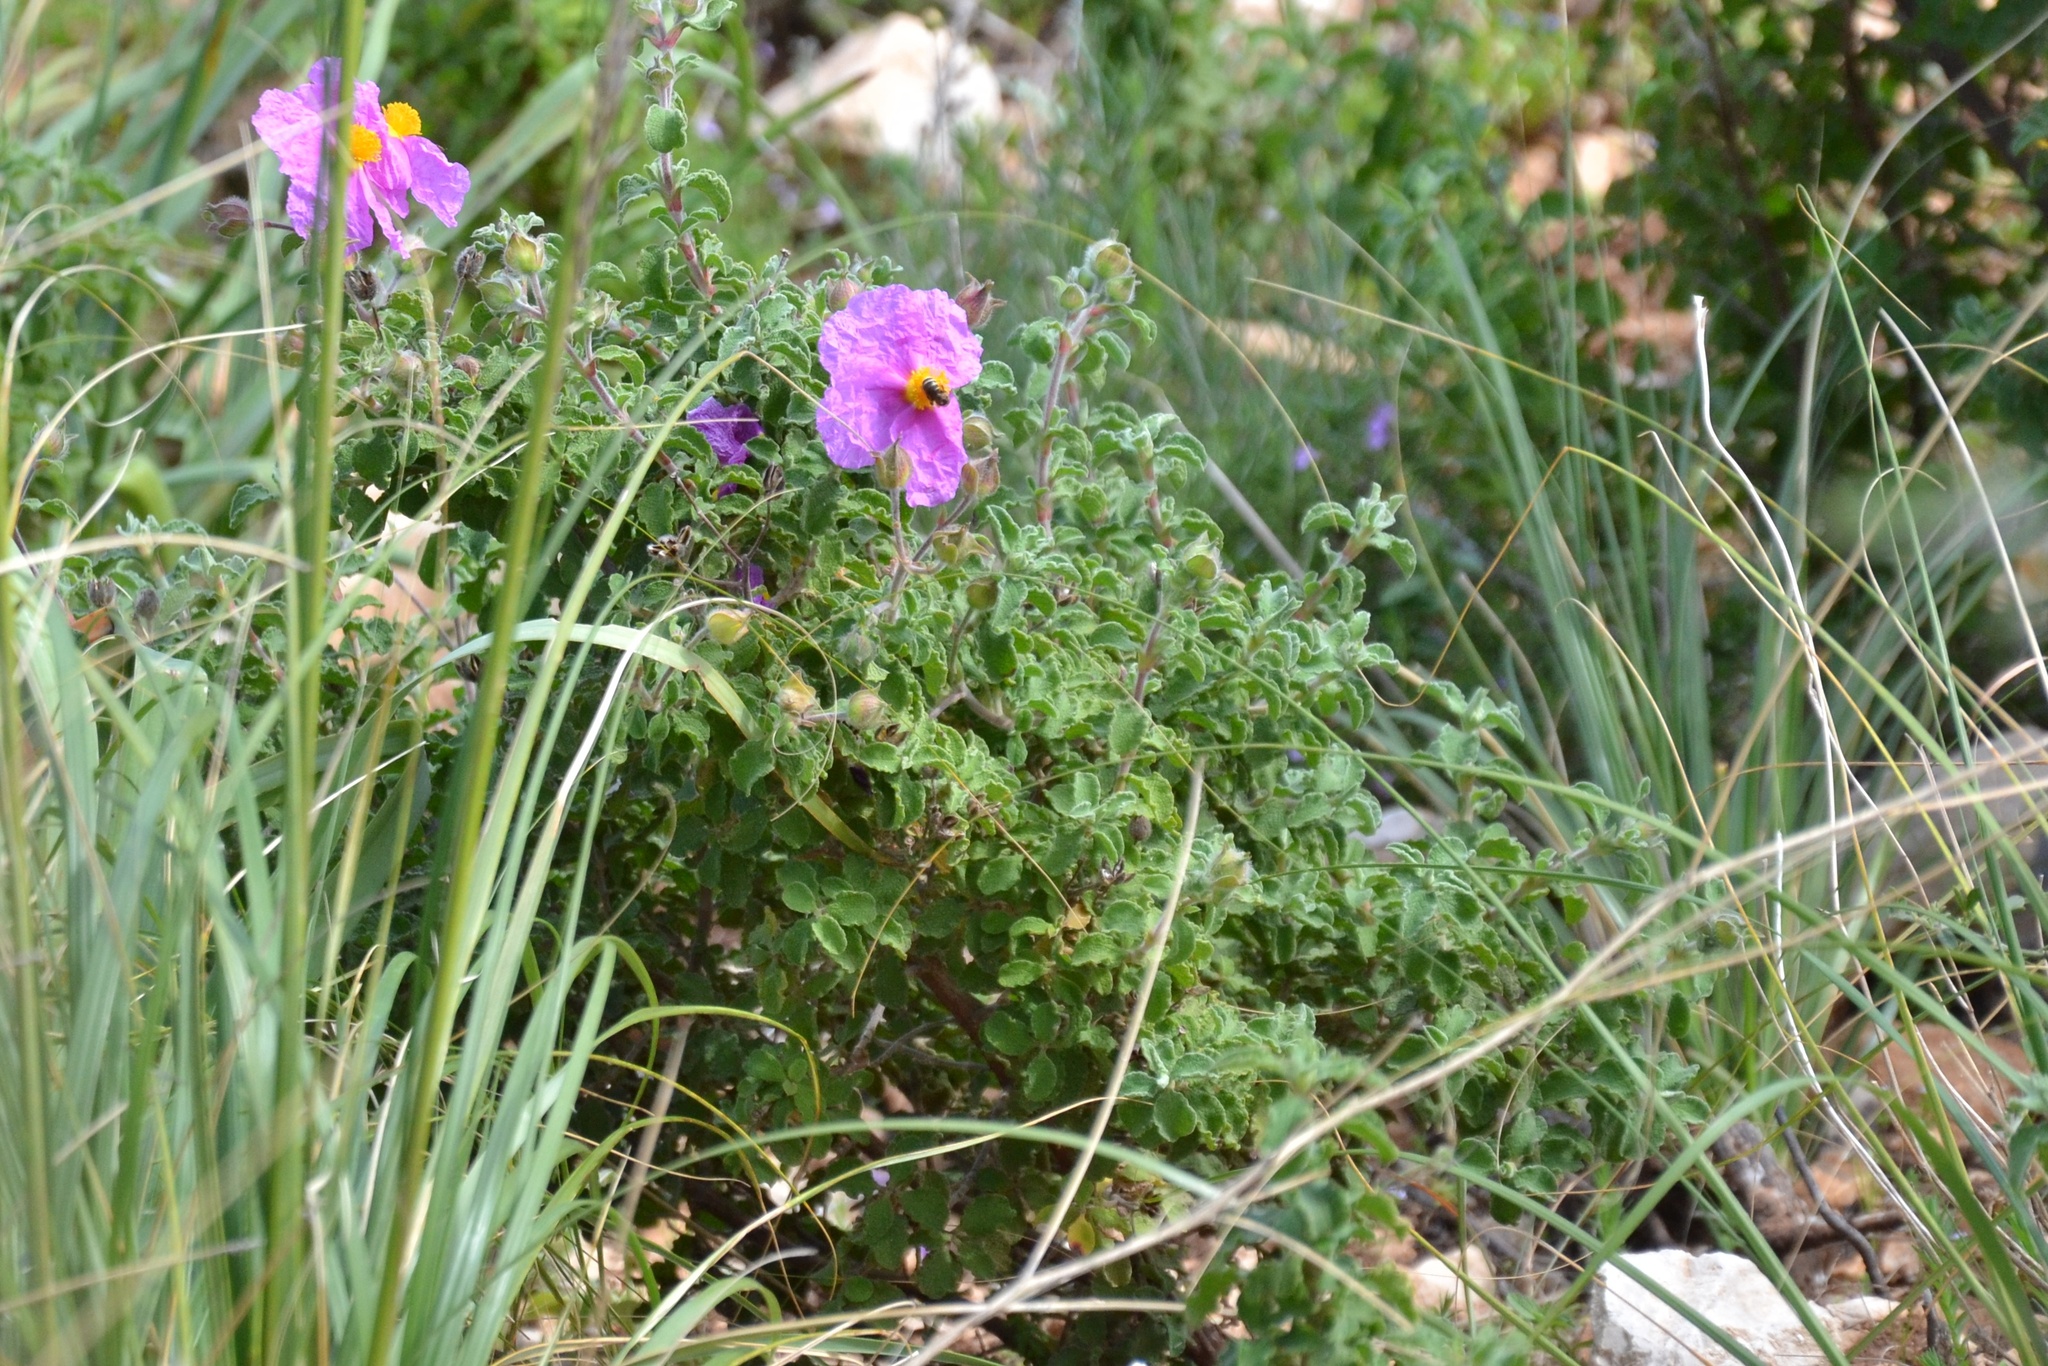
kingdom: Plantae
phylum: Tracheophyta
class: Magnoliopsida
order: Malvales
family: Cistaceae
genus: Cistus
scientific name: Cistus creticus
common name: Cretan rockrose
